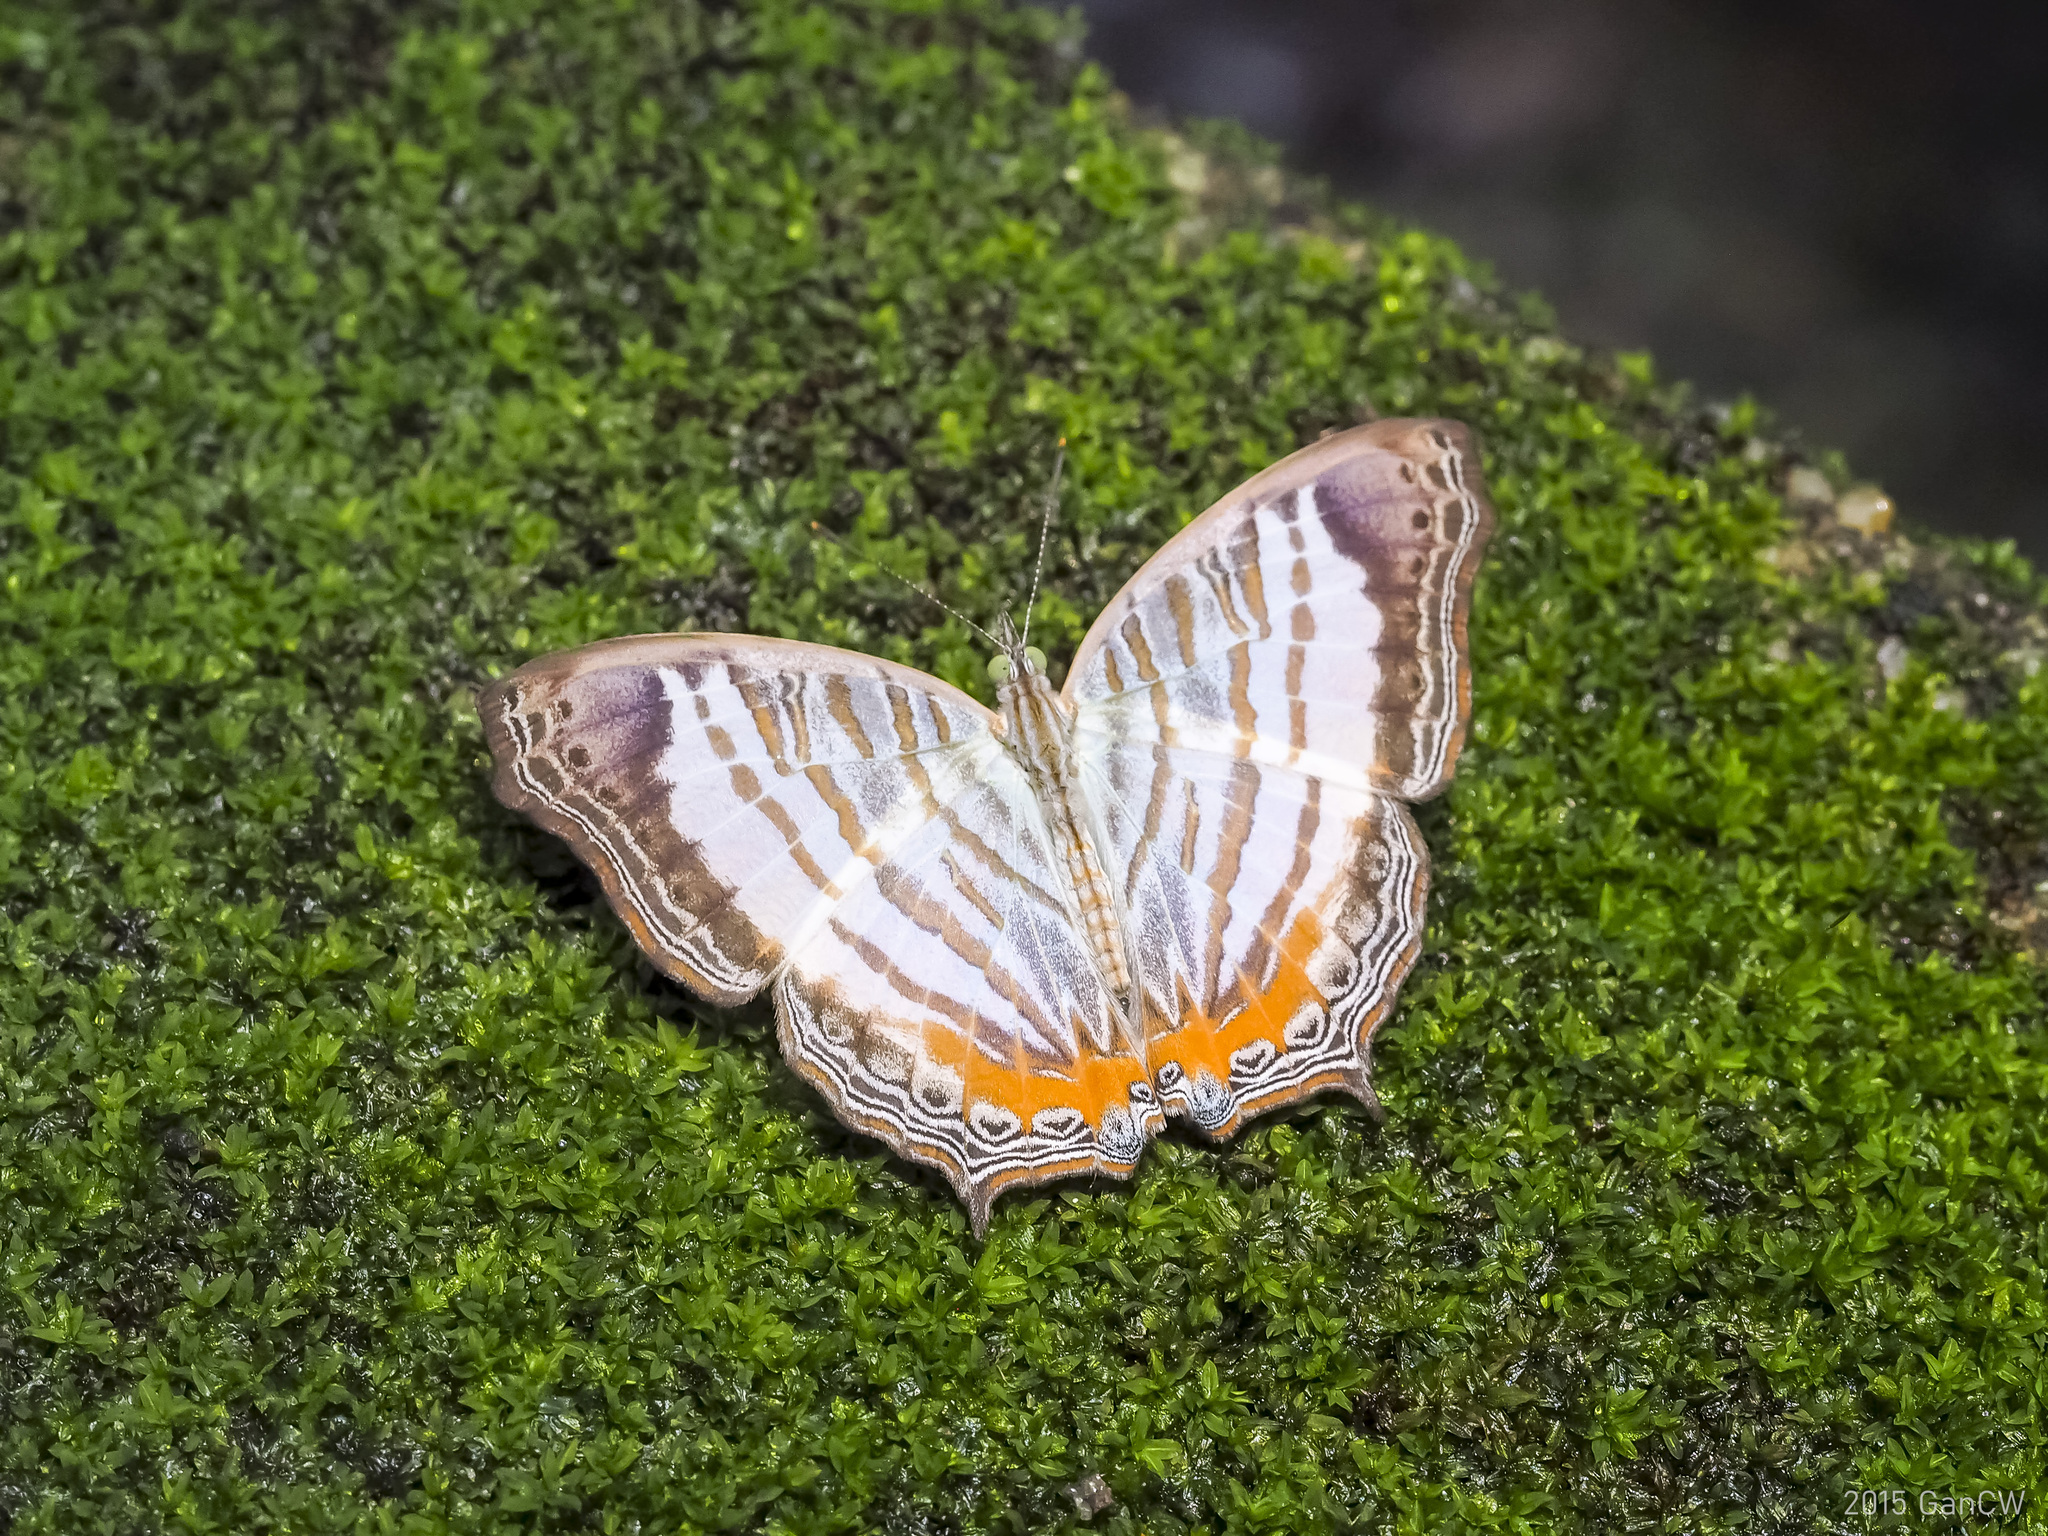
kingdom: Animalia
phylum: Arthropoda
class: Insecta
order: Lepidoptera
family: Nymphalidae
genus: Cyrestis
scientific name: Cyrestis themire
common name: Little mapwing
